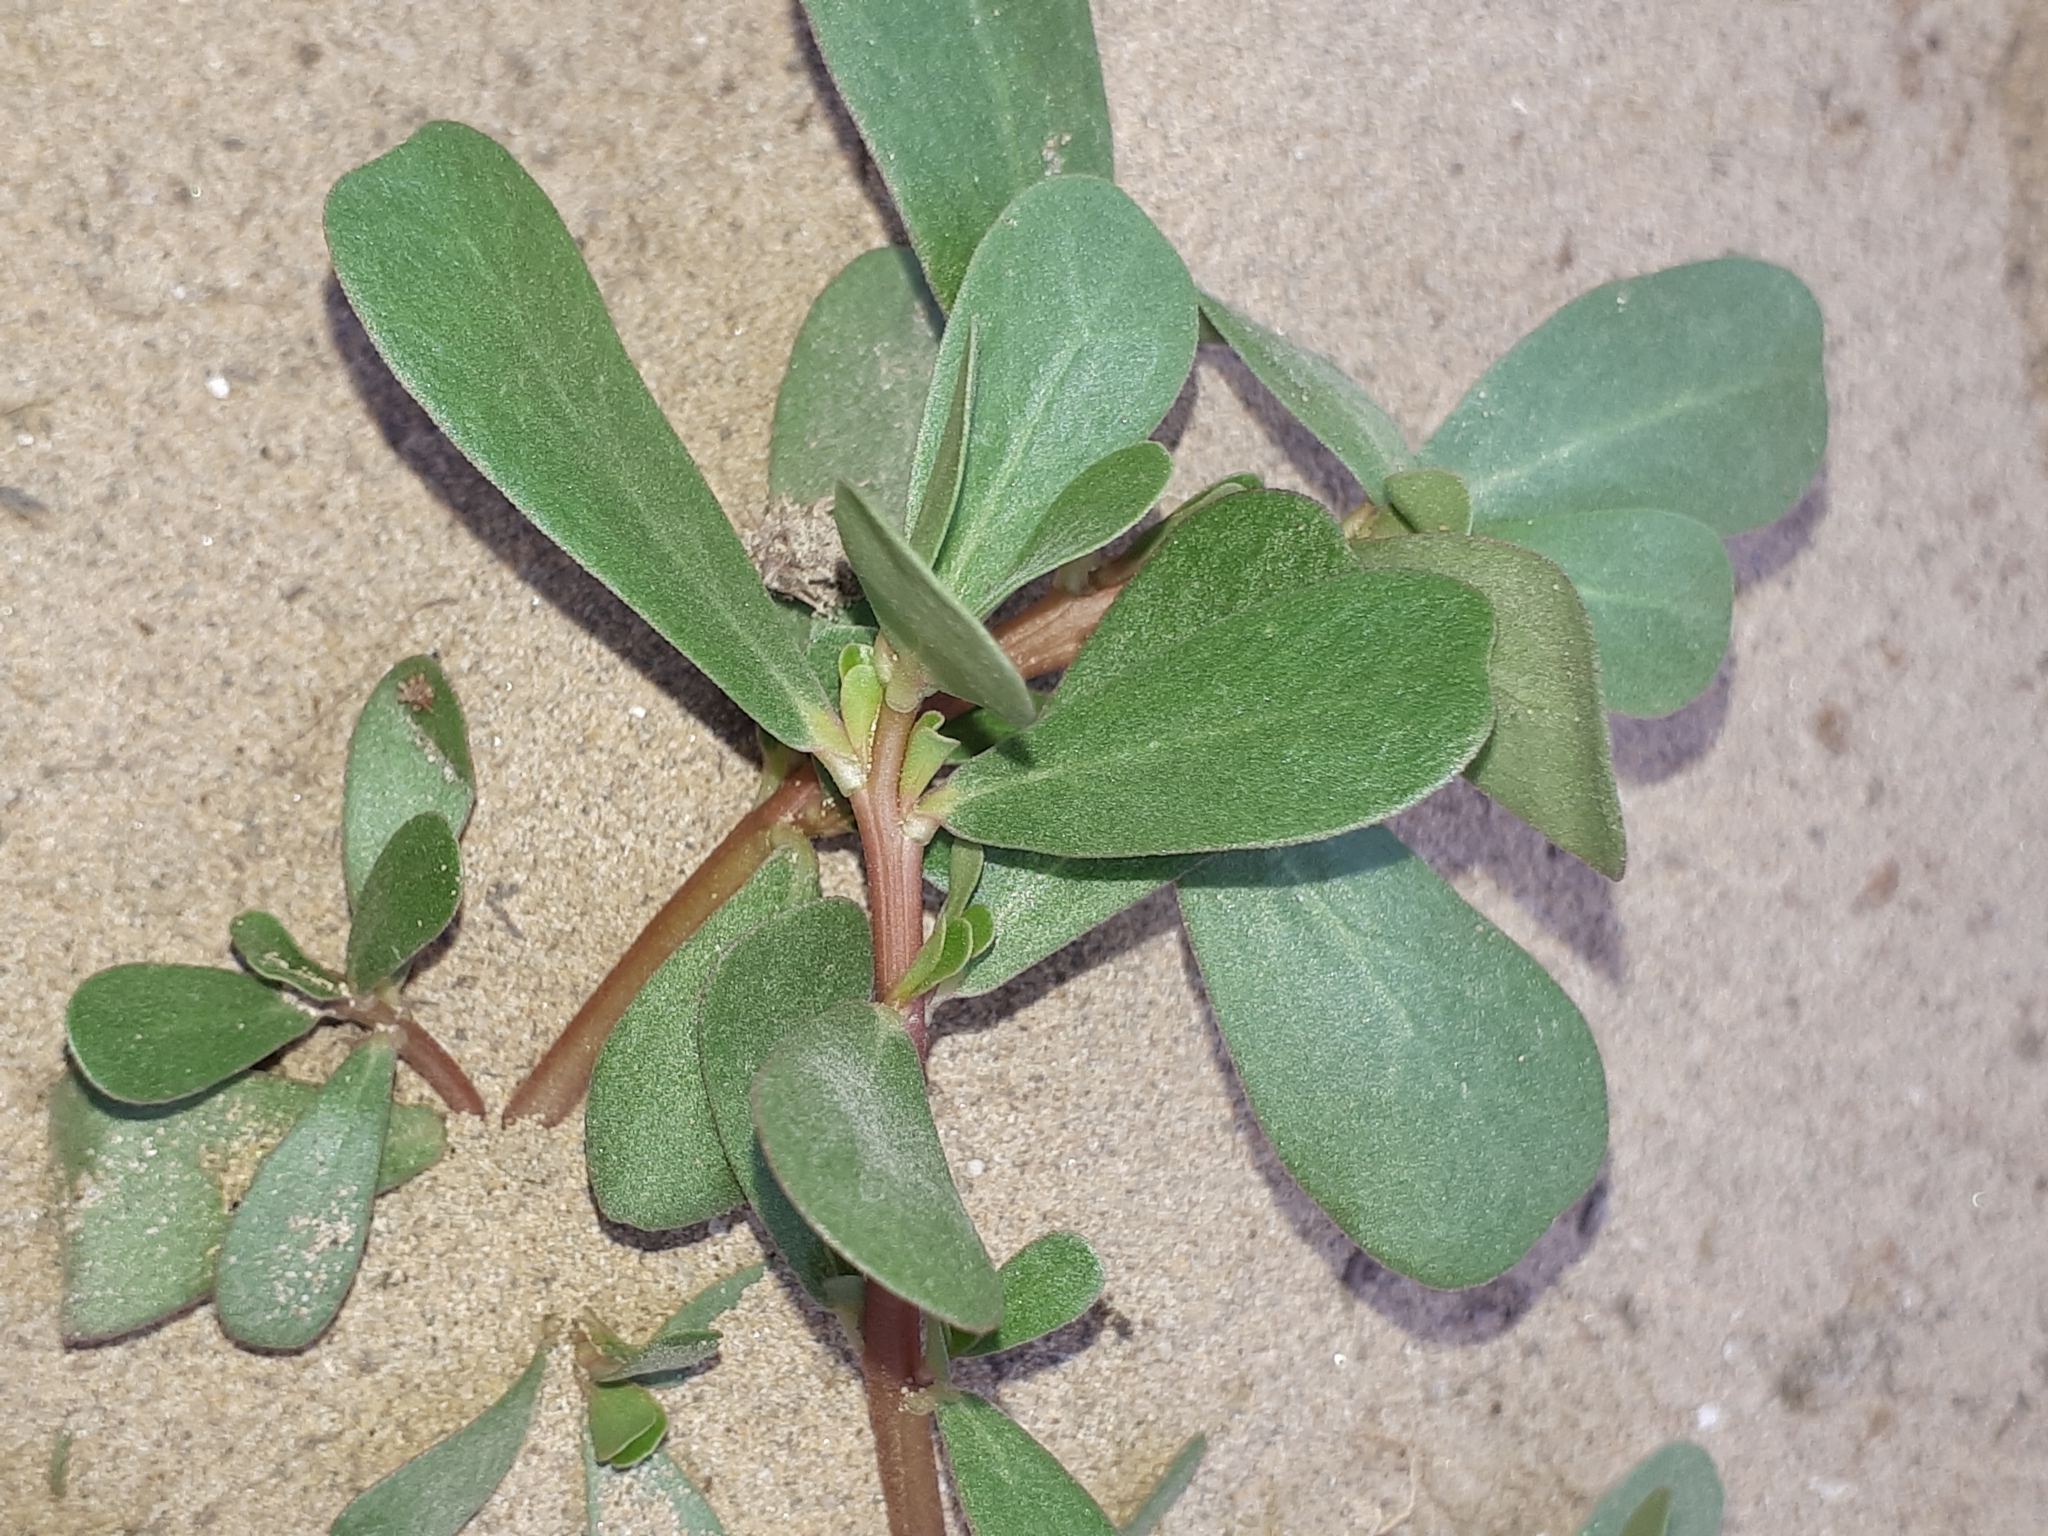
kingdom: Plantae
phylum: Tracheophyta
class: Magnoliopsida
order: Caryophyllales
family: Portulacaceae
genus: Portulaca
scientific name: Portulaca oleracea
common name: Common purslane
